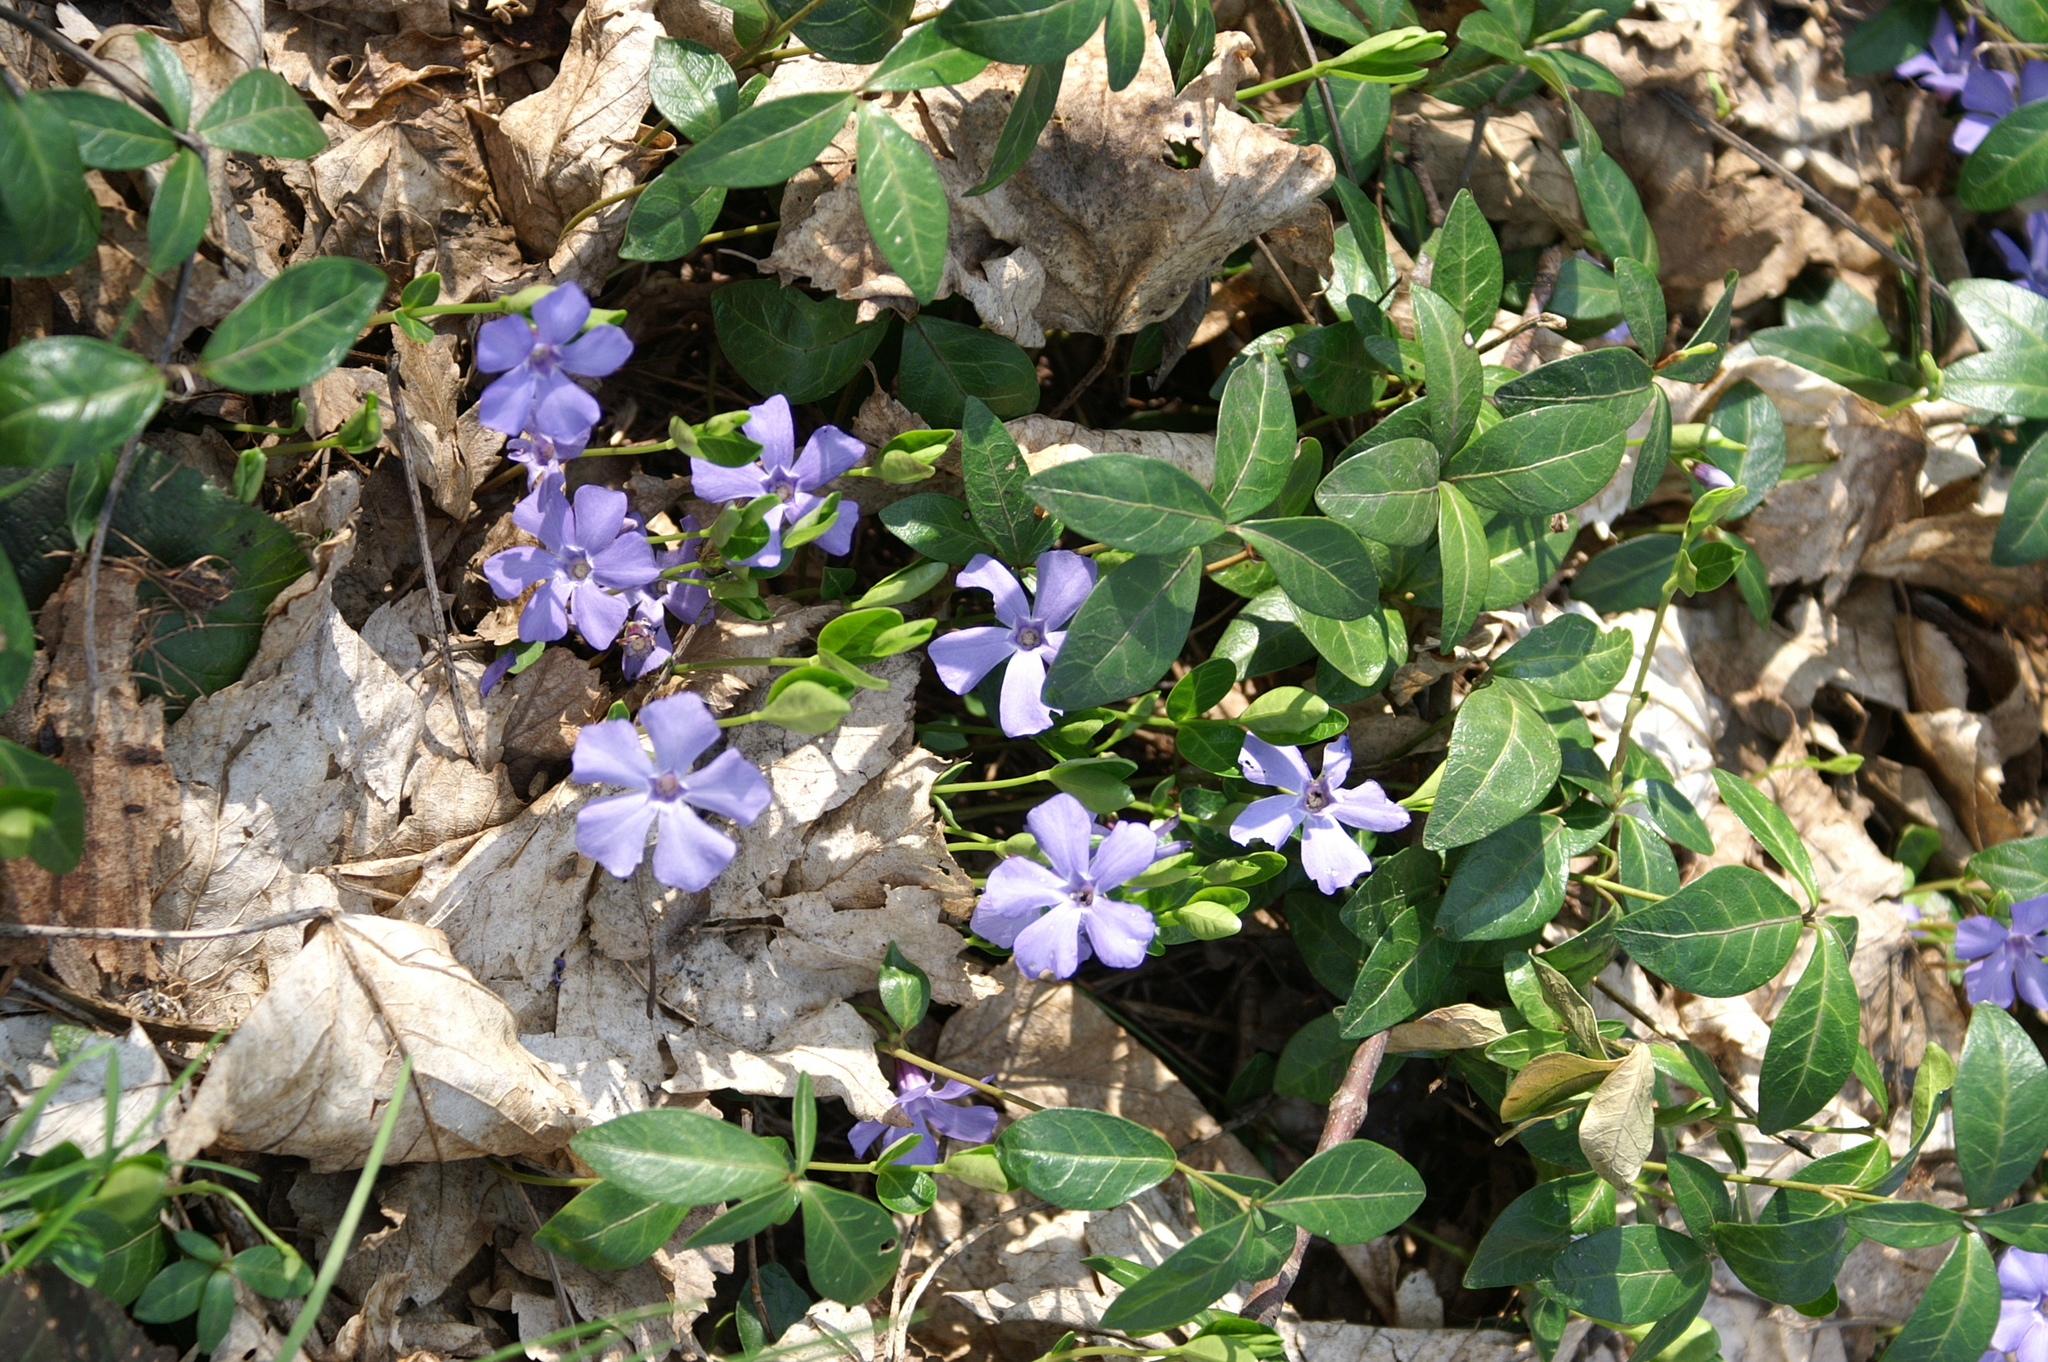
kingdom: Plantae
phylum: Tracheophyta
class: Magnoliopsida
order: Gentianales
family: Apocynaceae
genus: Vinca
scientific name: Vinca minor
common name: Lesser periwinkle
